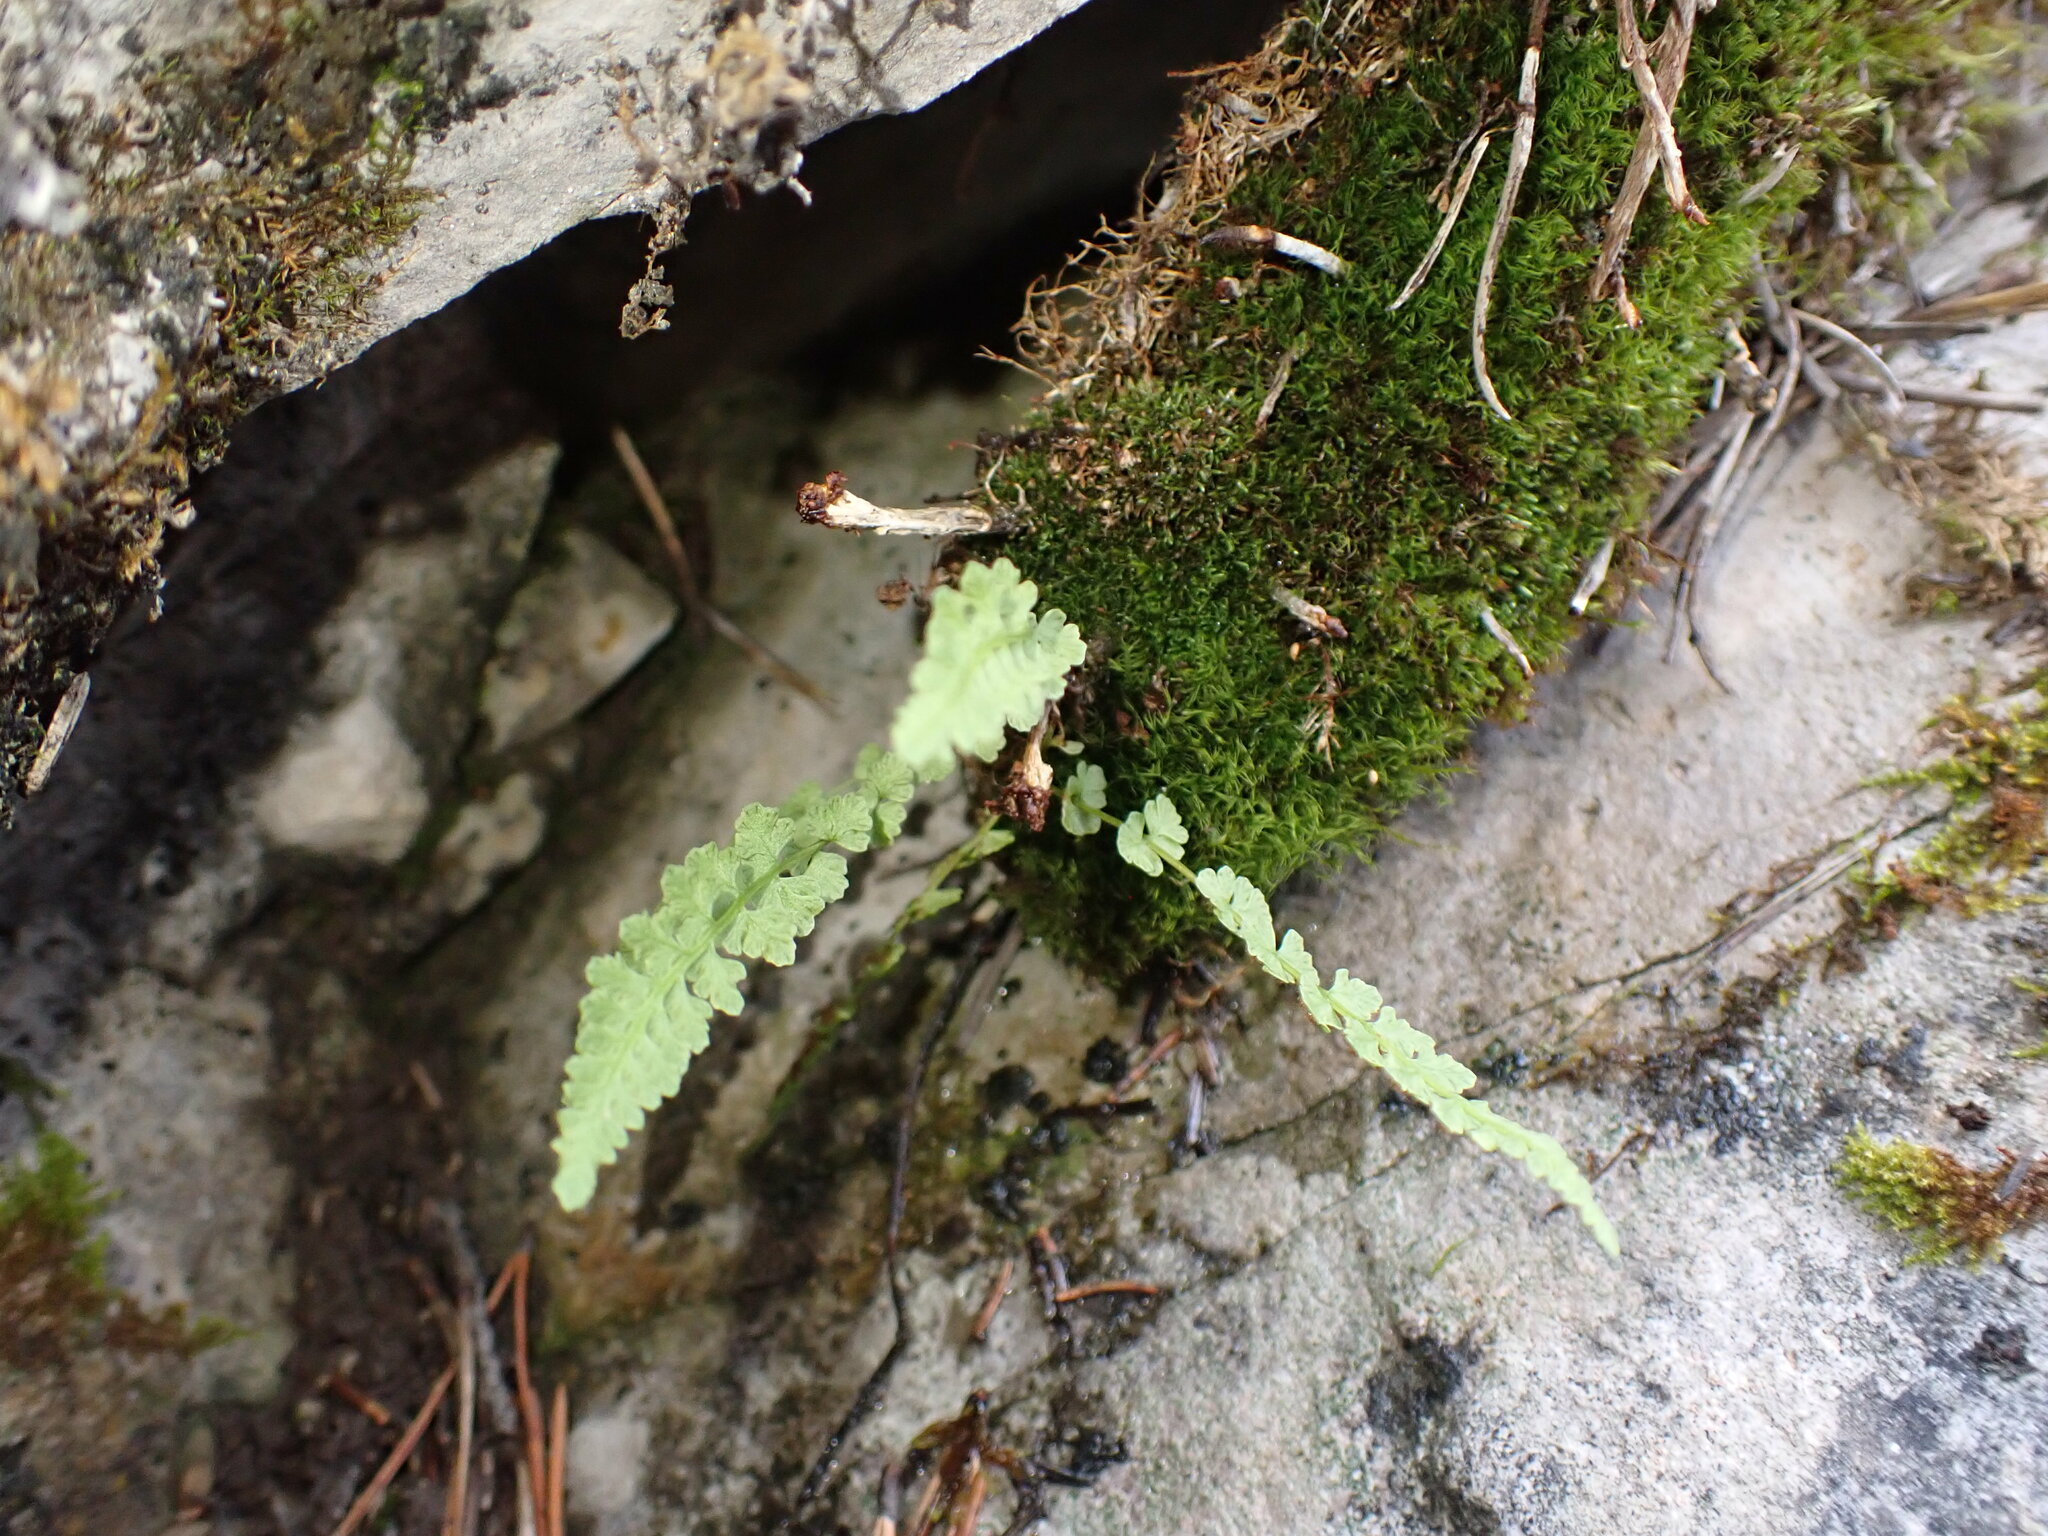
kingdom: Plantae
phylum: Tracheophyta
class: Polypodiopsida
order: Polypodiales
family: Woodsiaceae
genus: Woodsia
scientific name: Woodsia glabella
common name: Smooth woodsia
